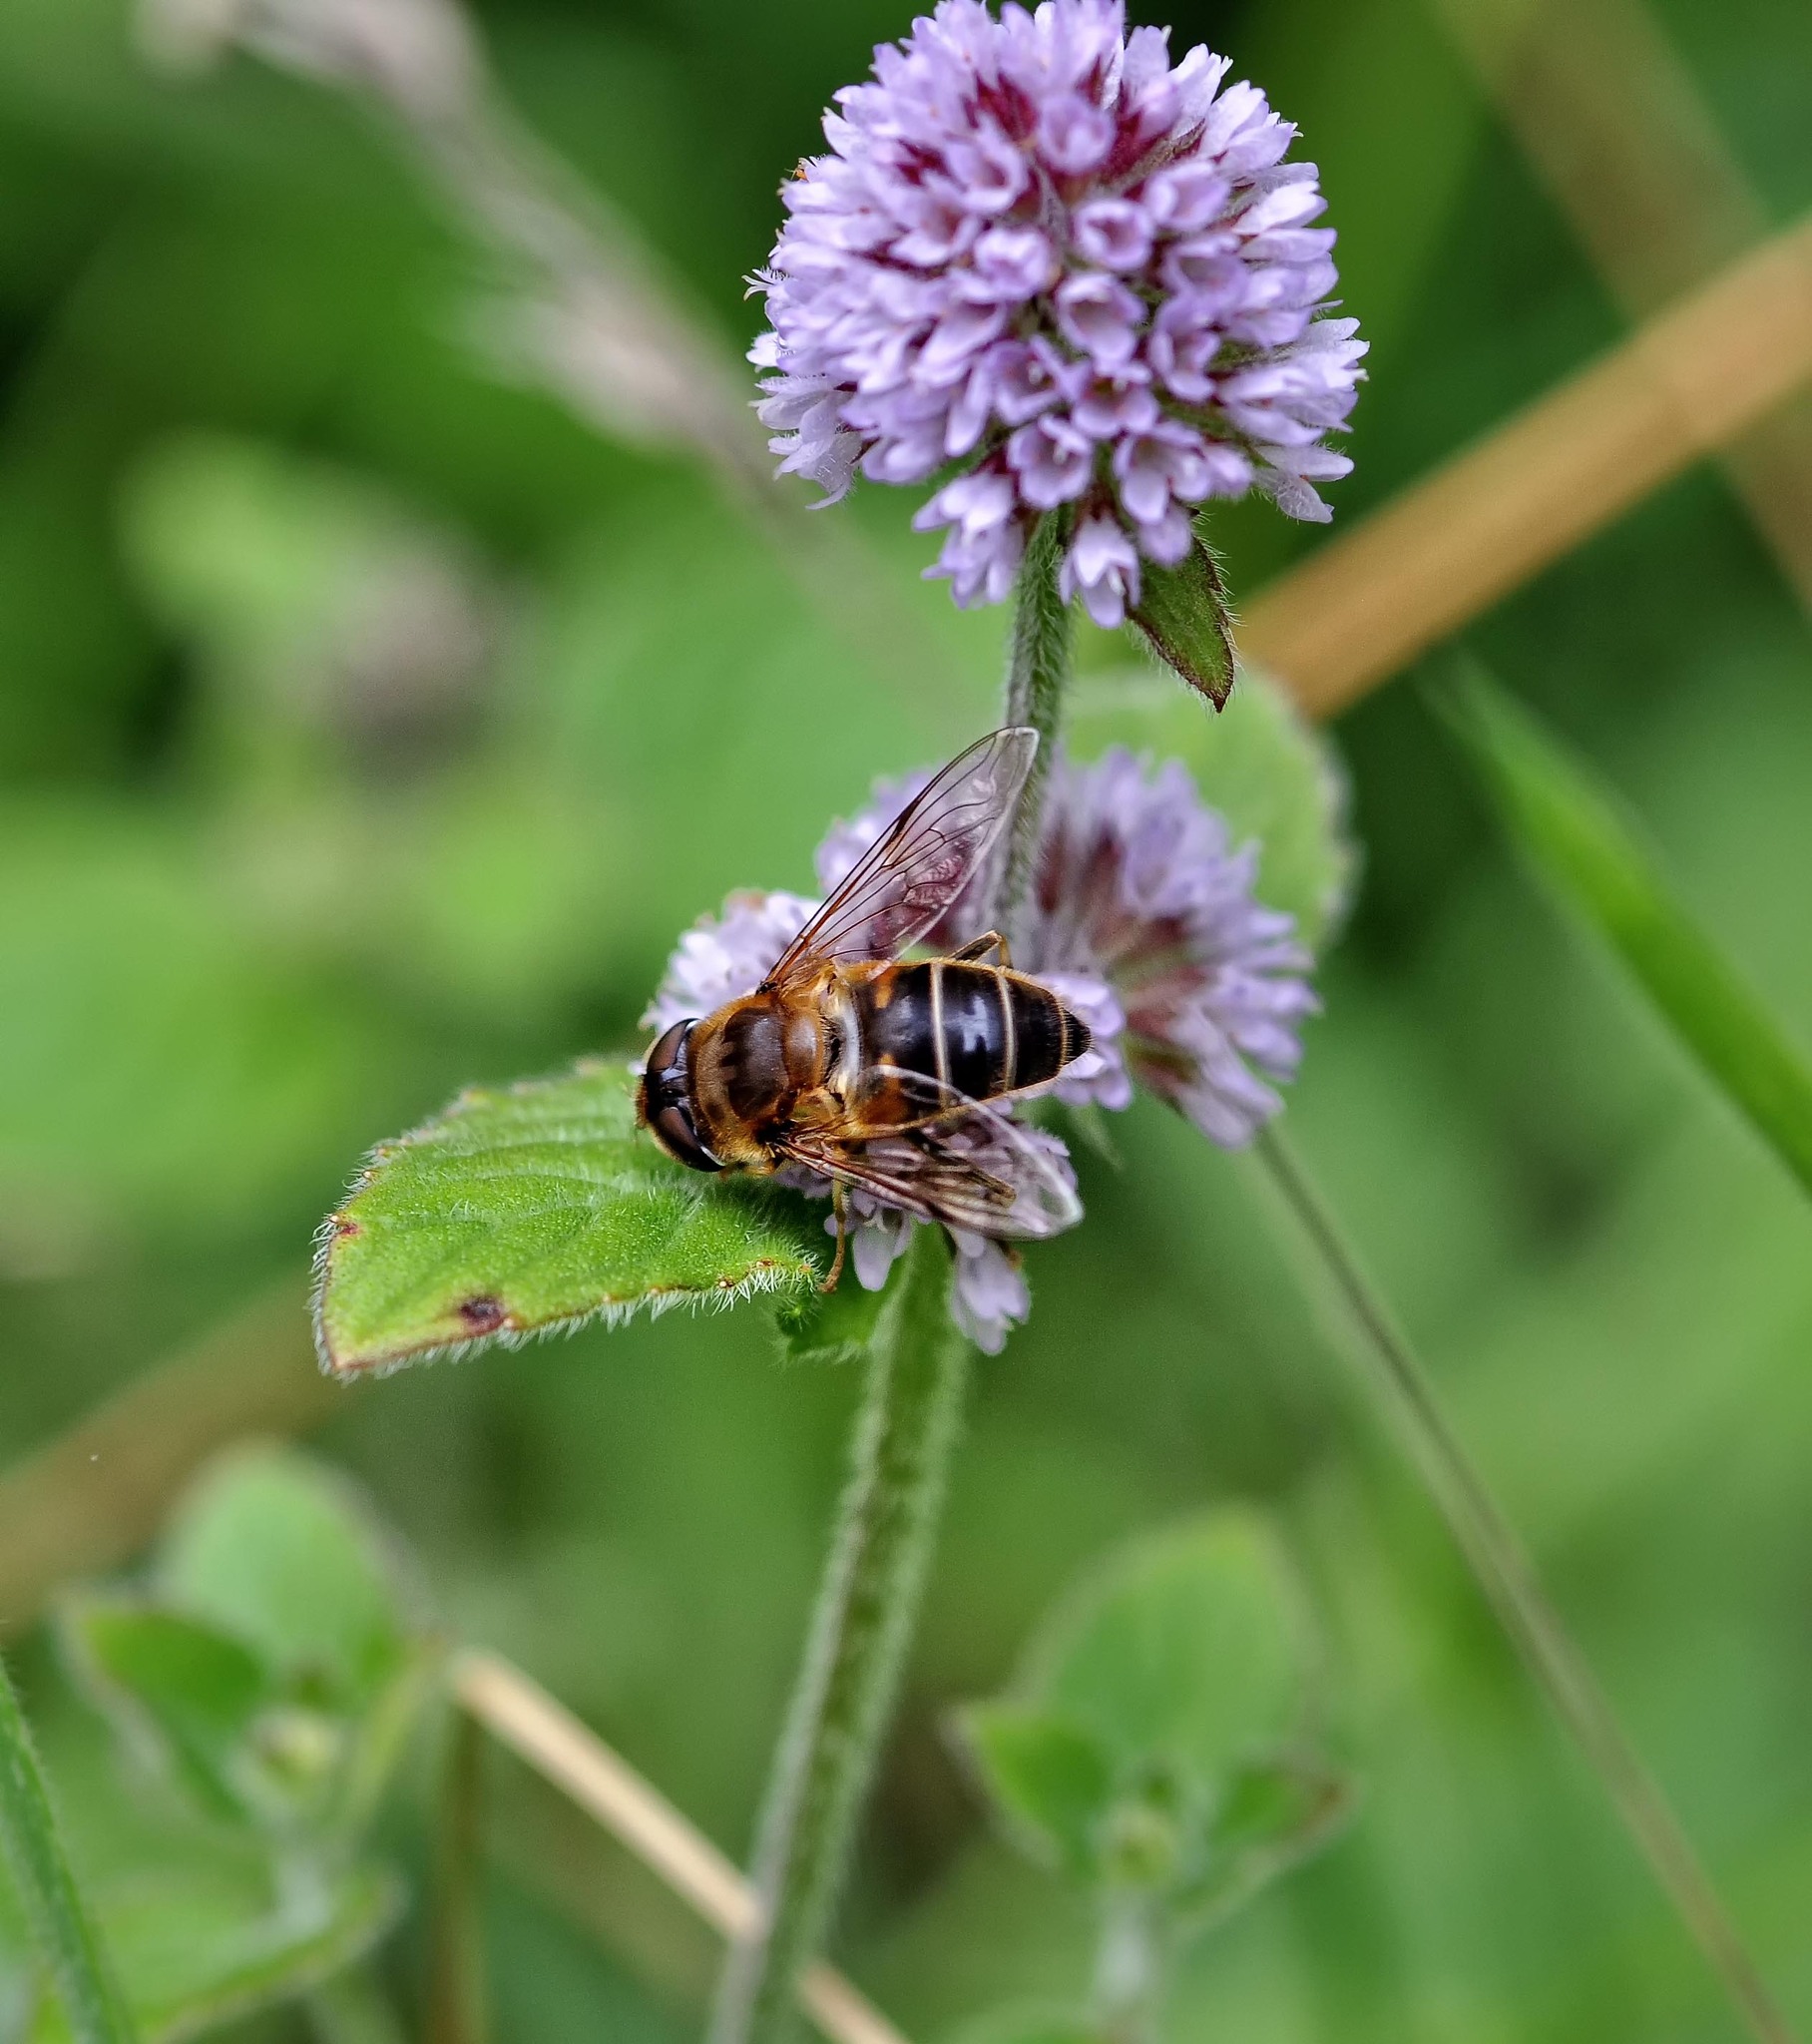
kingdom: Animalia
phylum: Arthropoda
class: Insecta
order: Diptera
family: Syrphidae
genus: Eristalis
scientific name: Eristalis pertinax
